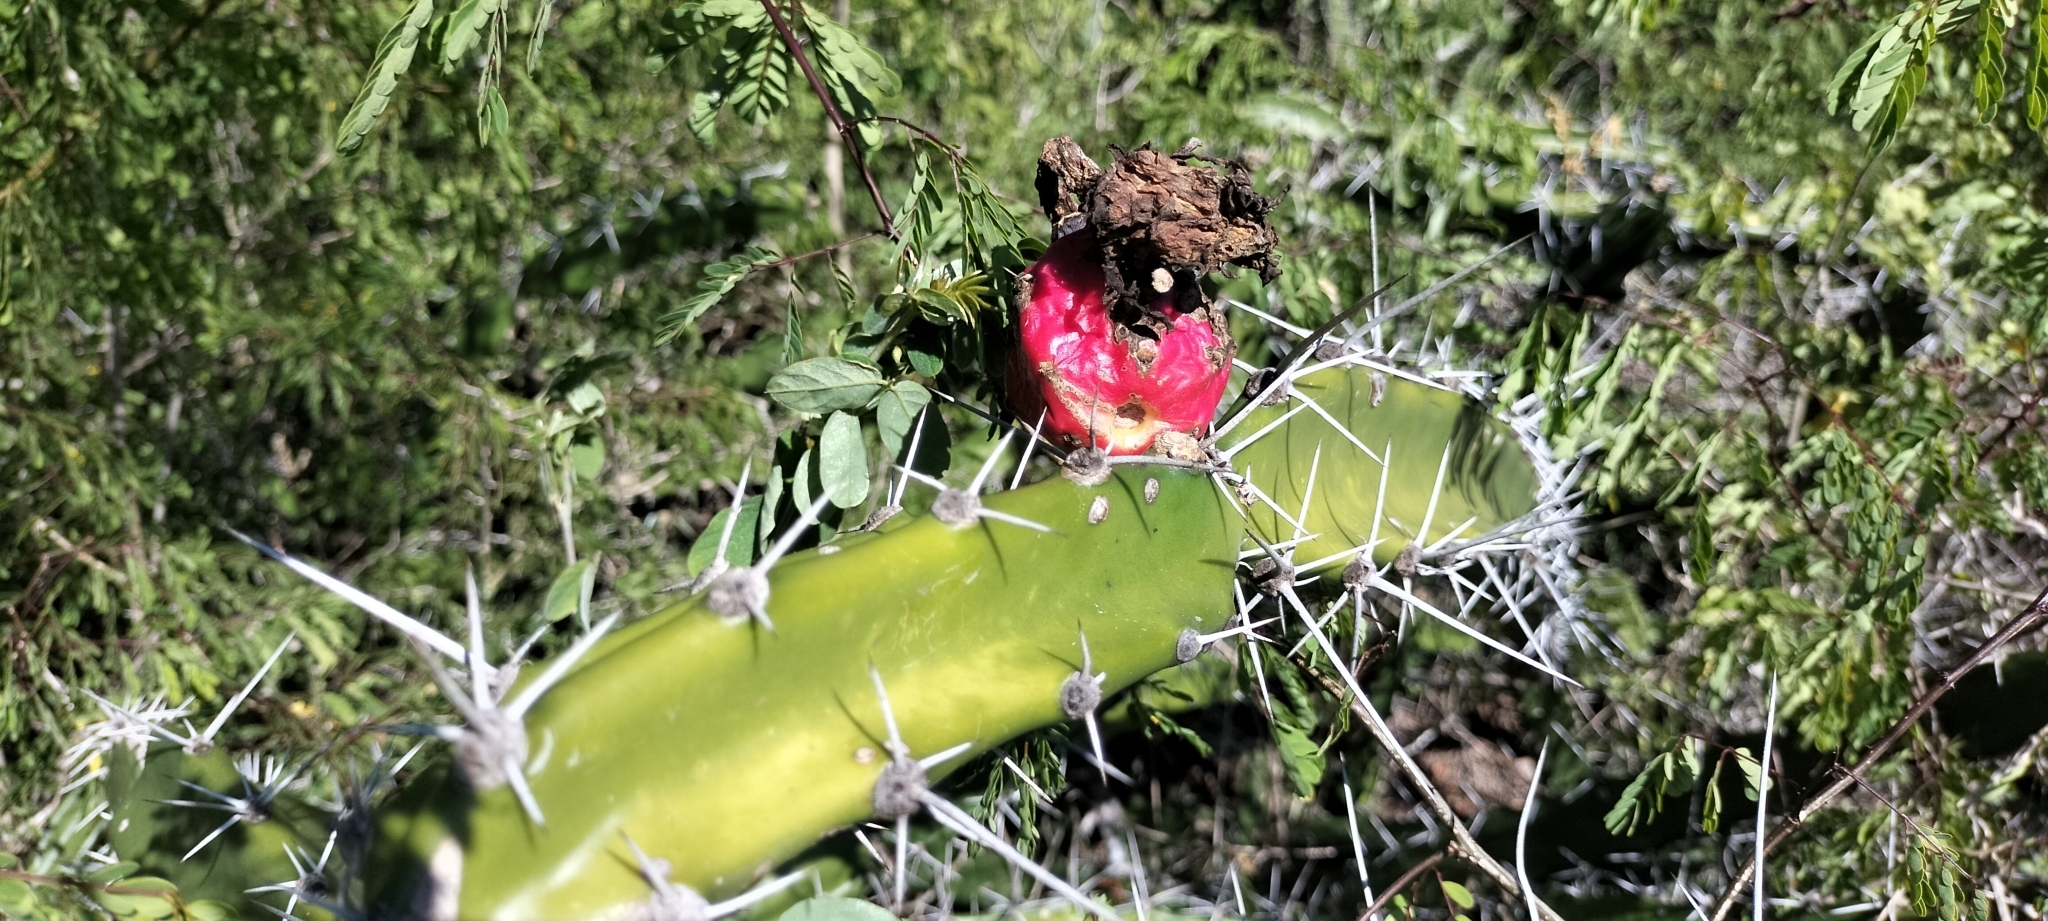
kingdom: Plantae
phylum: Tracheophyta
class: Magnoliopsida
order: Caryophyllales
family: Cactaceae
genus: Acanthocereus
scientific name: Acanthocereus tetragonus
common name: Triangle cactus
